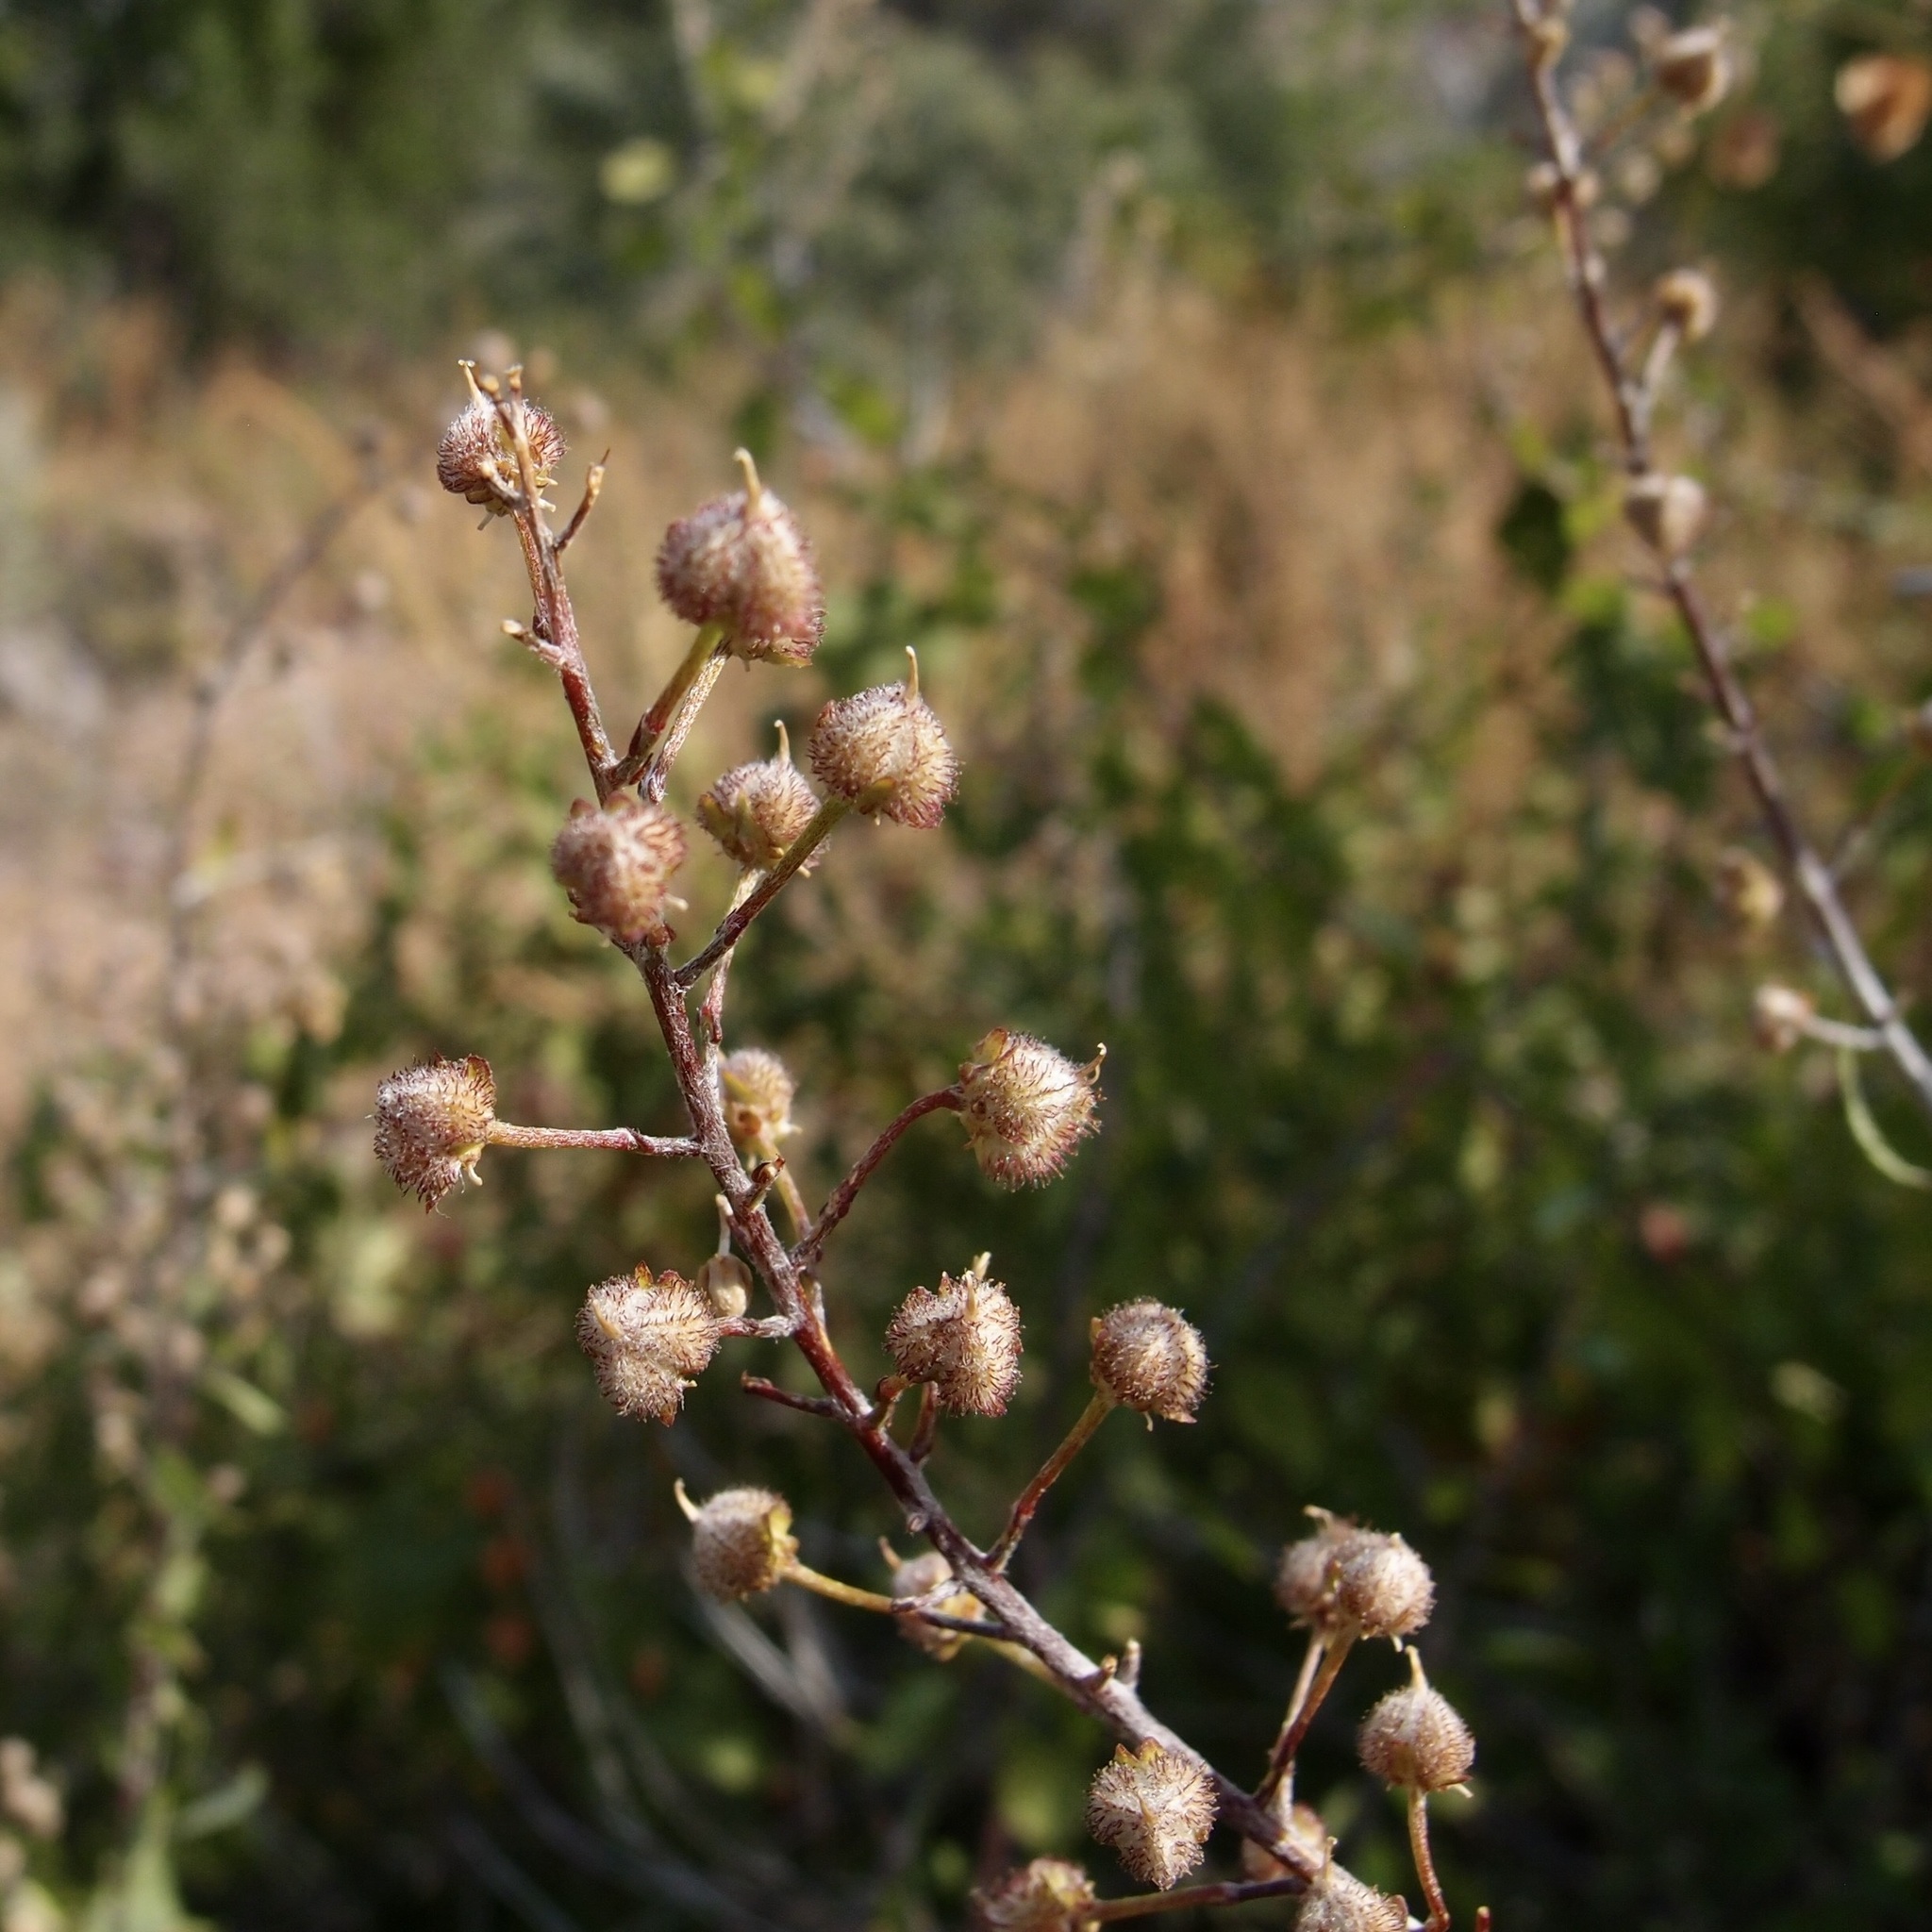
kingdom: Plantae
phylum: Tracheophyta
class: Magnoliopsida
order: Malpighiales
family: Malpighiaceae
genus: Echinopterys
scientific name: Echinopterys eglandulosa
